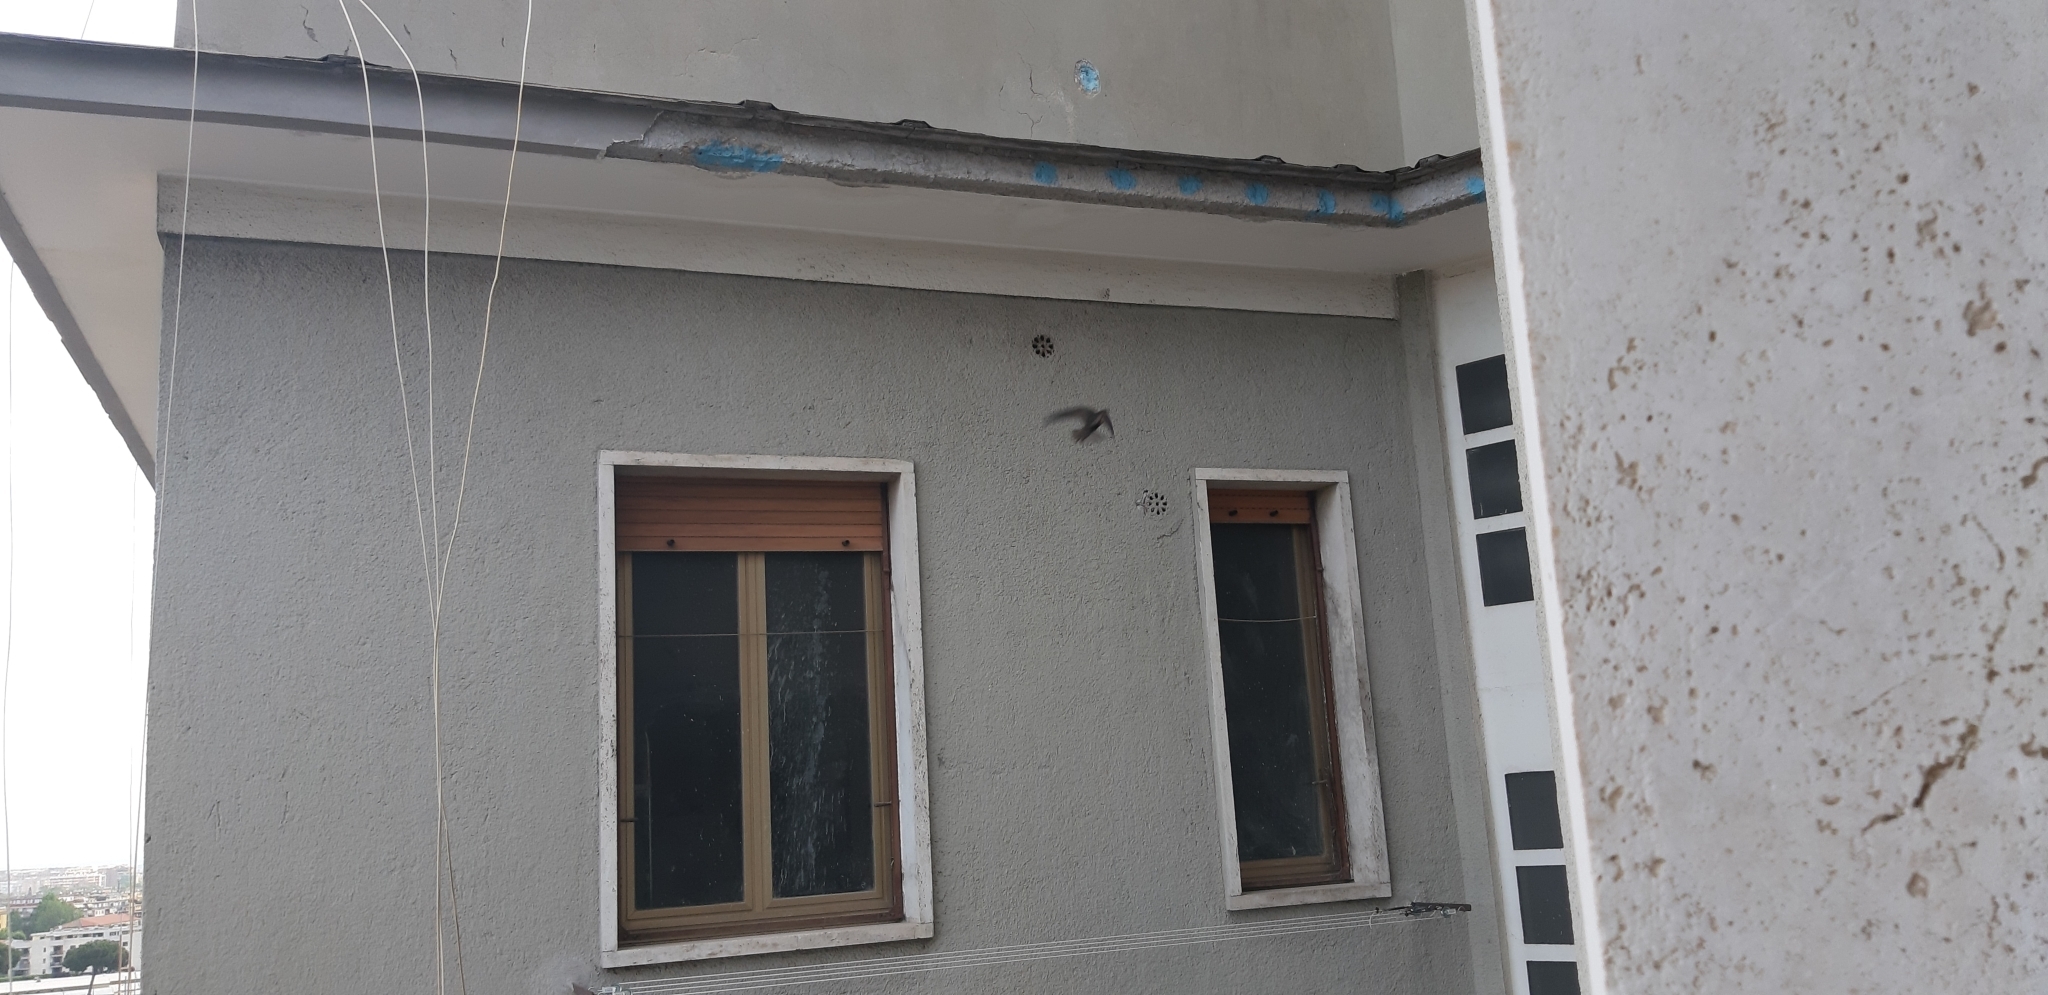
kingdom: Animalia
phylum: Chordata
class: Aves
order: Apodiformes
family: Apodidae
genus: Apus
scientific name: Apus apus
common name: Common swift
